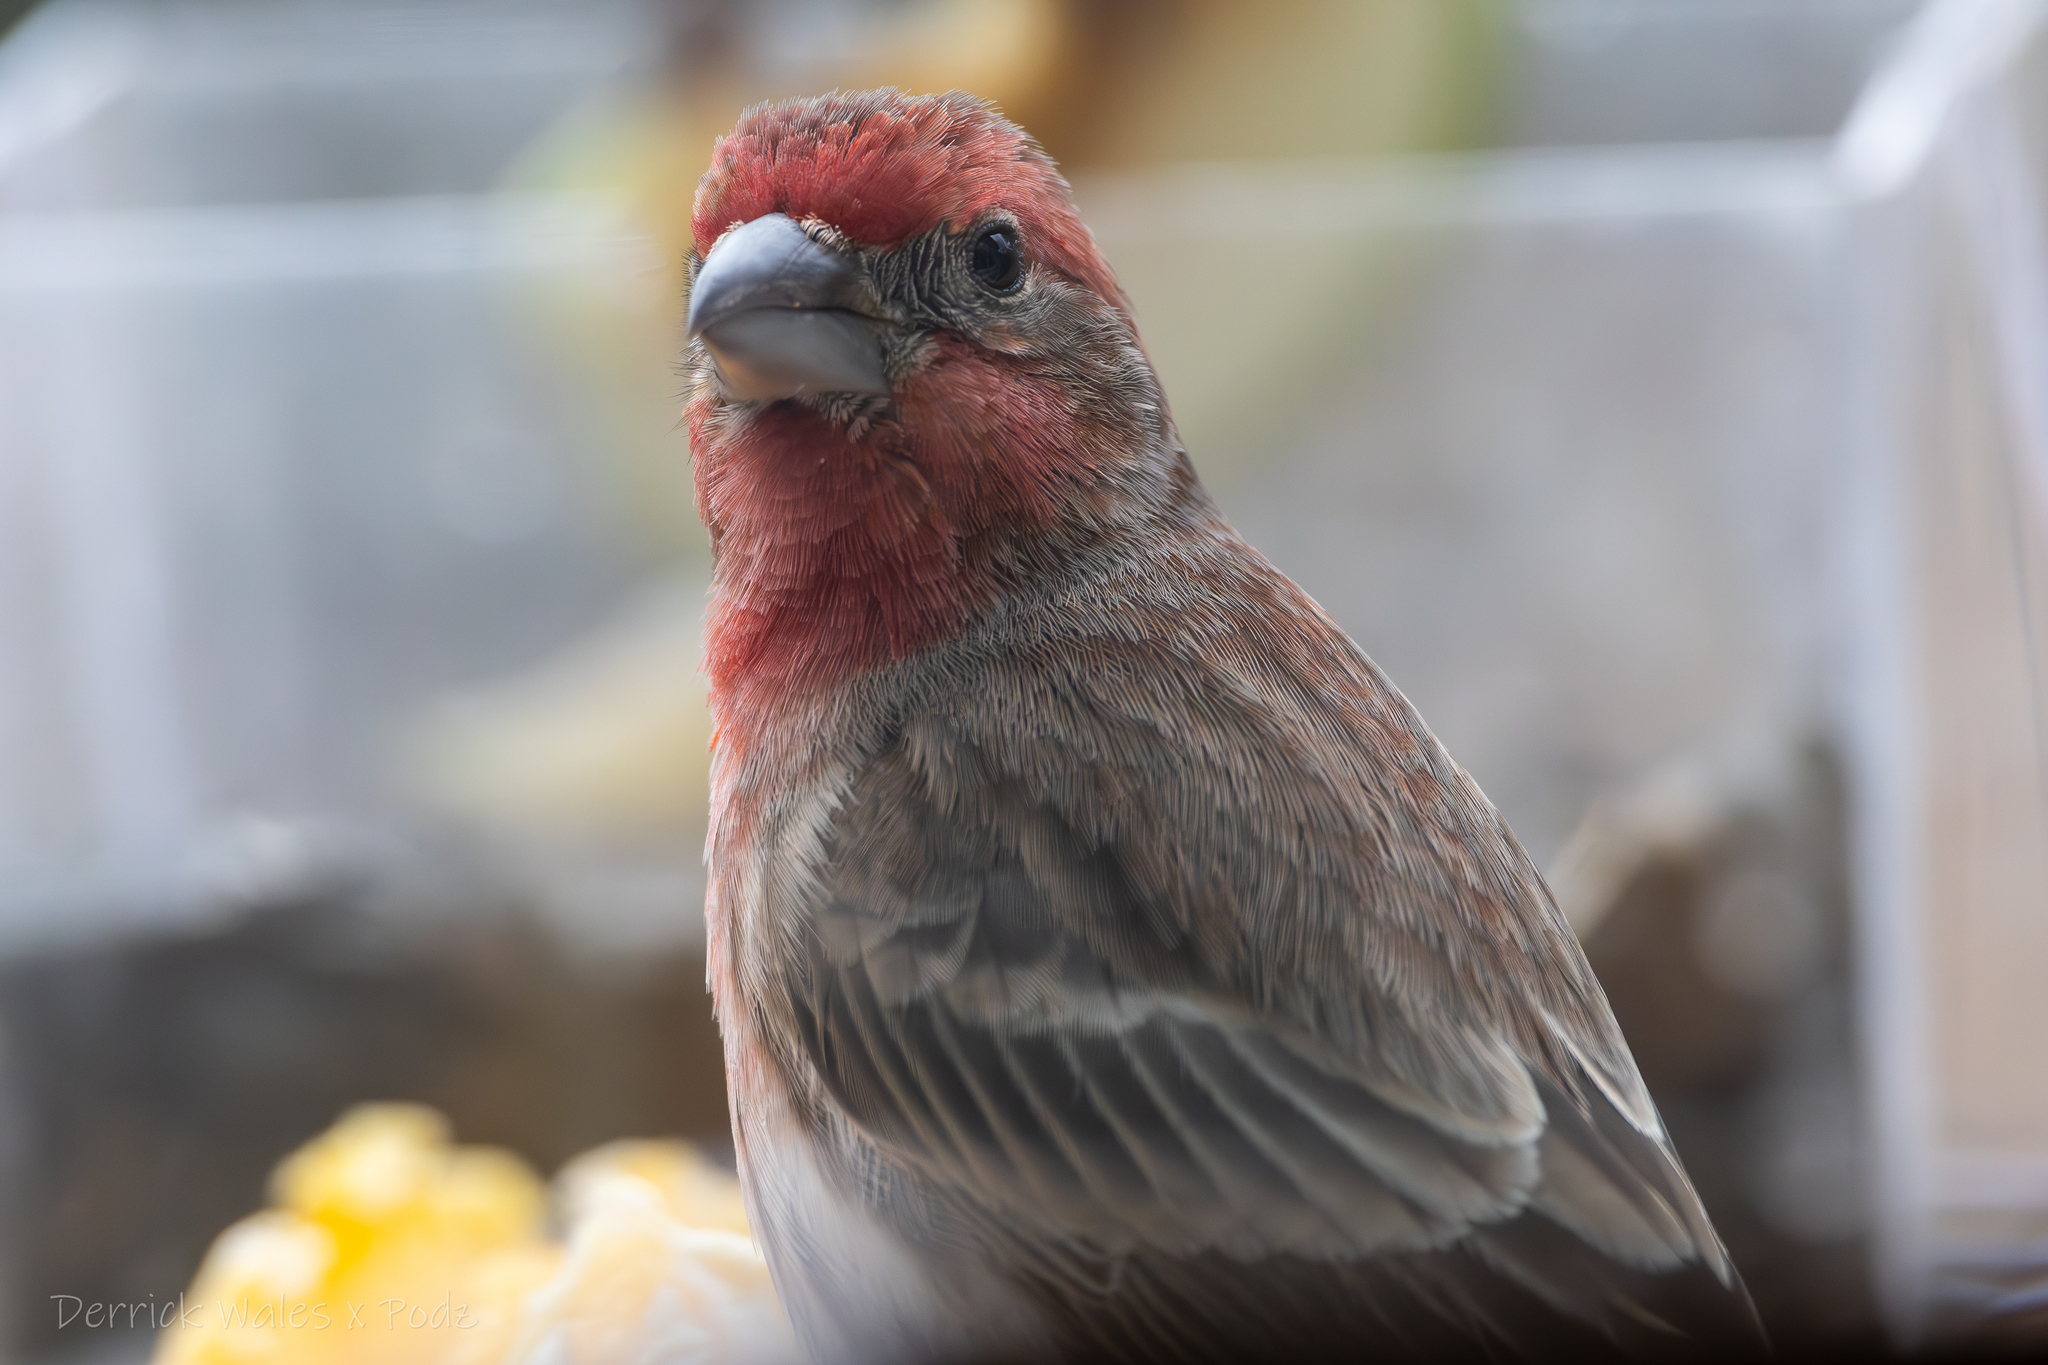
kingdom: Animalia
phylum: Chordata
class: Aves
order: Passeriformes
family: Fringillidae
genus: Haemorhous
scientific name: Haemorhous mexicanus
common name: House finch
